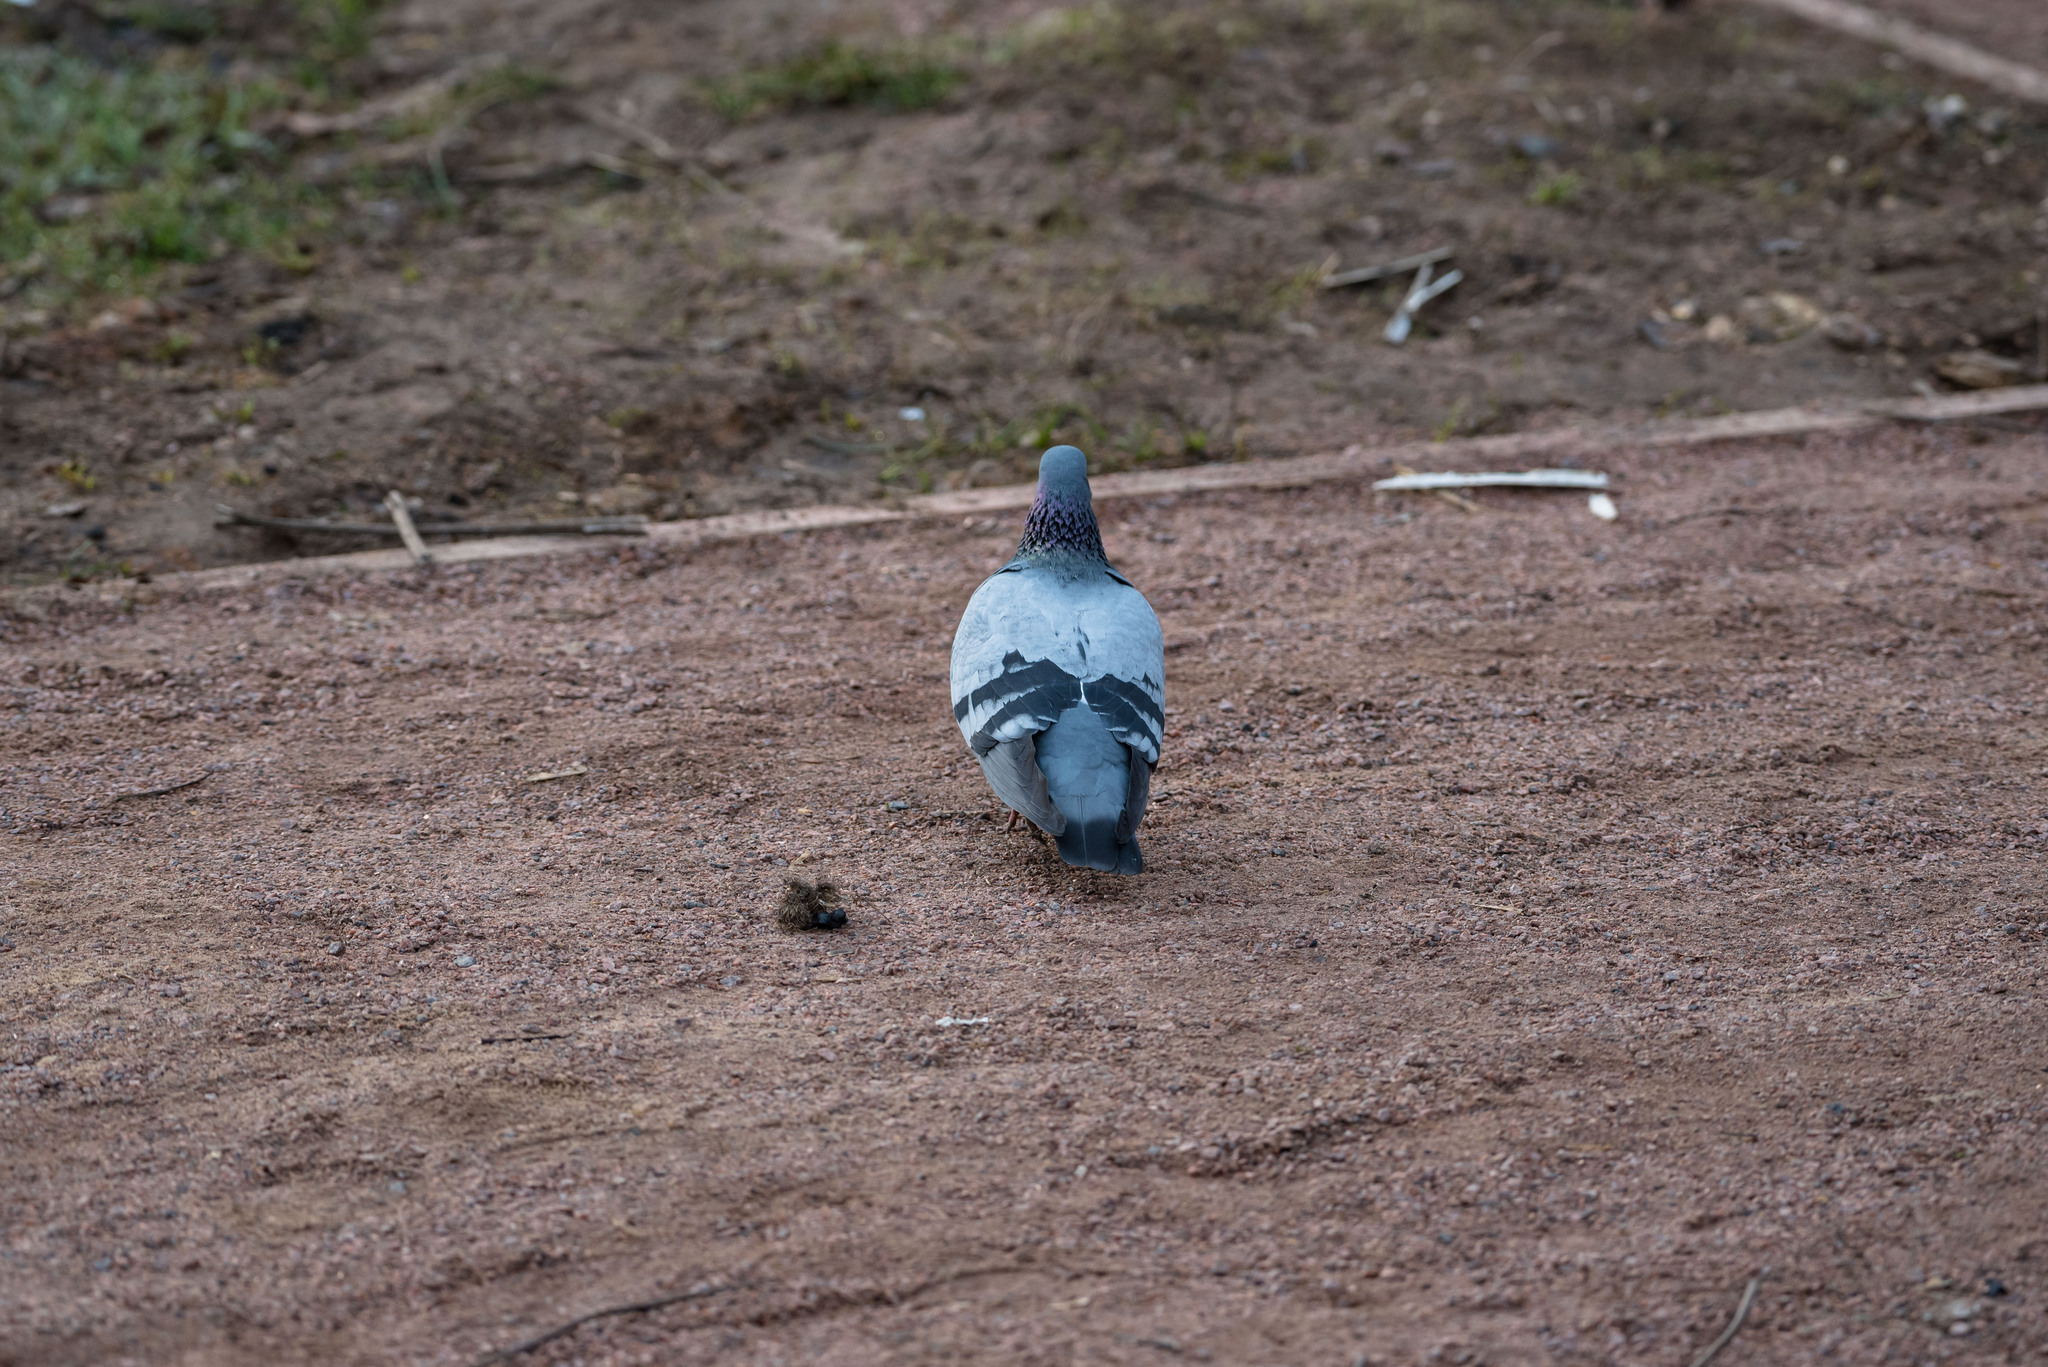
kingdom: Animalia
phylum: Chordata
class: Aves
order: Columbiformes
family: Columbidae
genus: Columba
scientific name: Columba livia
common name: Rock pigeon
